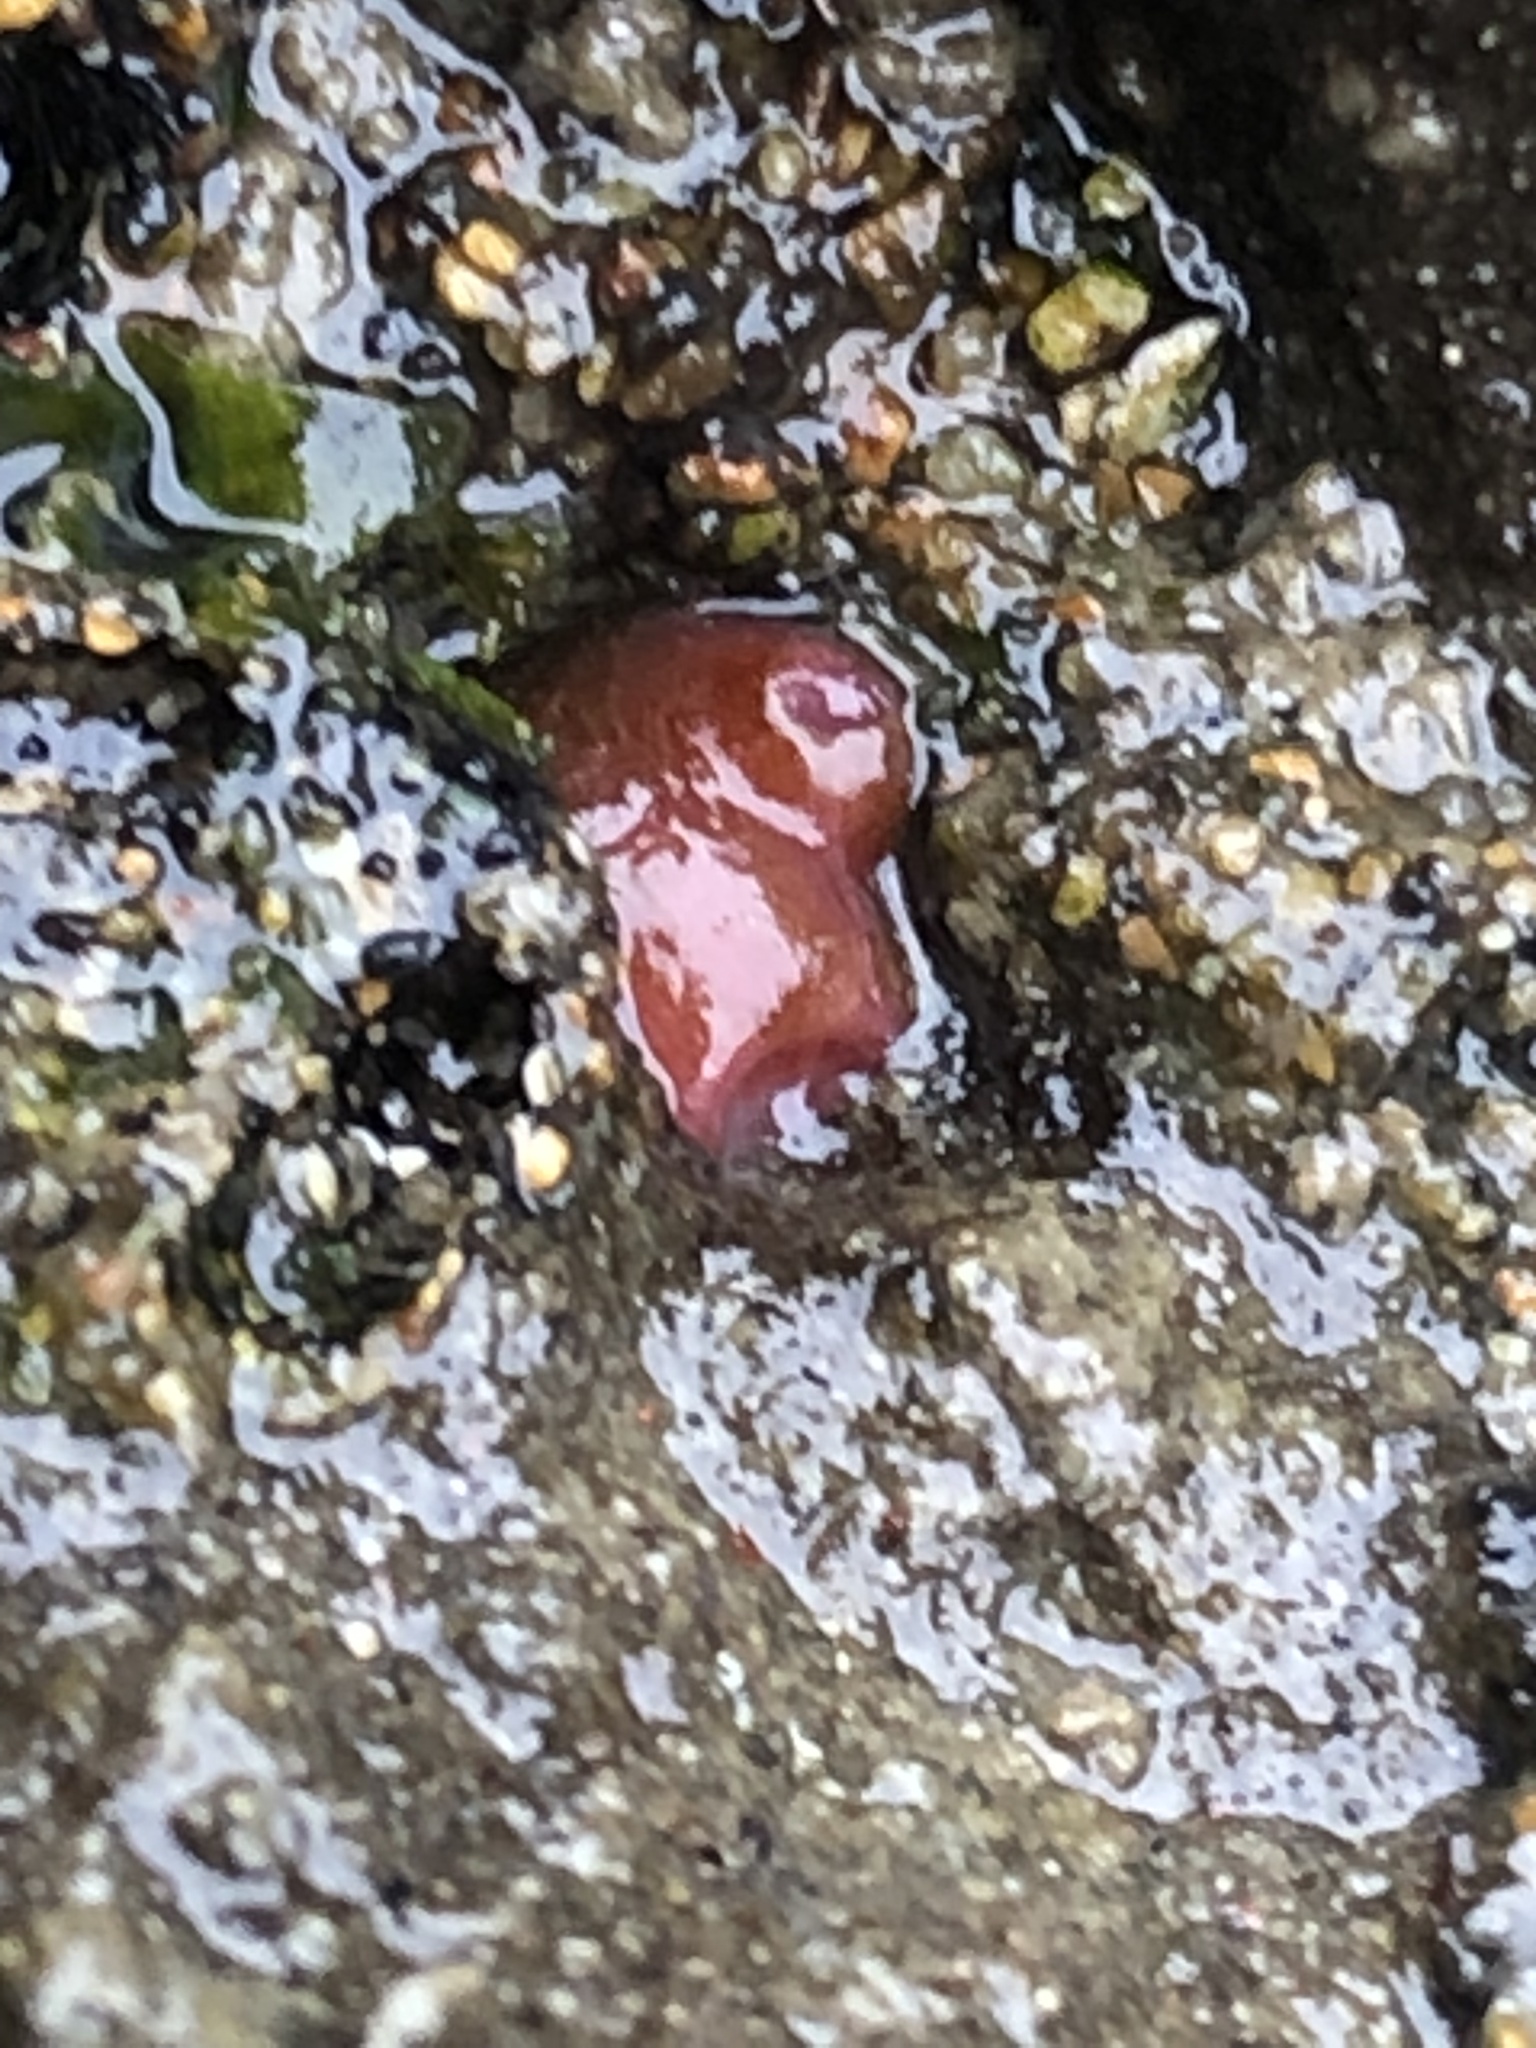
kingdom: Animalia
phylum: Mollusca
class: Bivalvia
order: Adapedonta
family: Hiatellidae
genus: Hiatella
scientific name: Hiatella arctica
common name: Arctic hiatella
